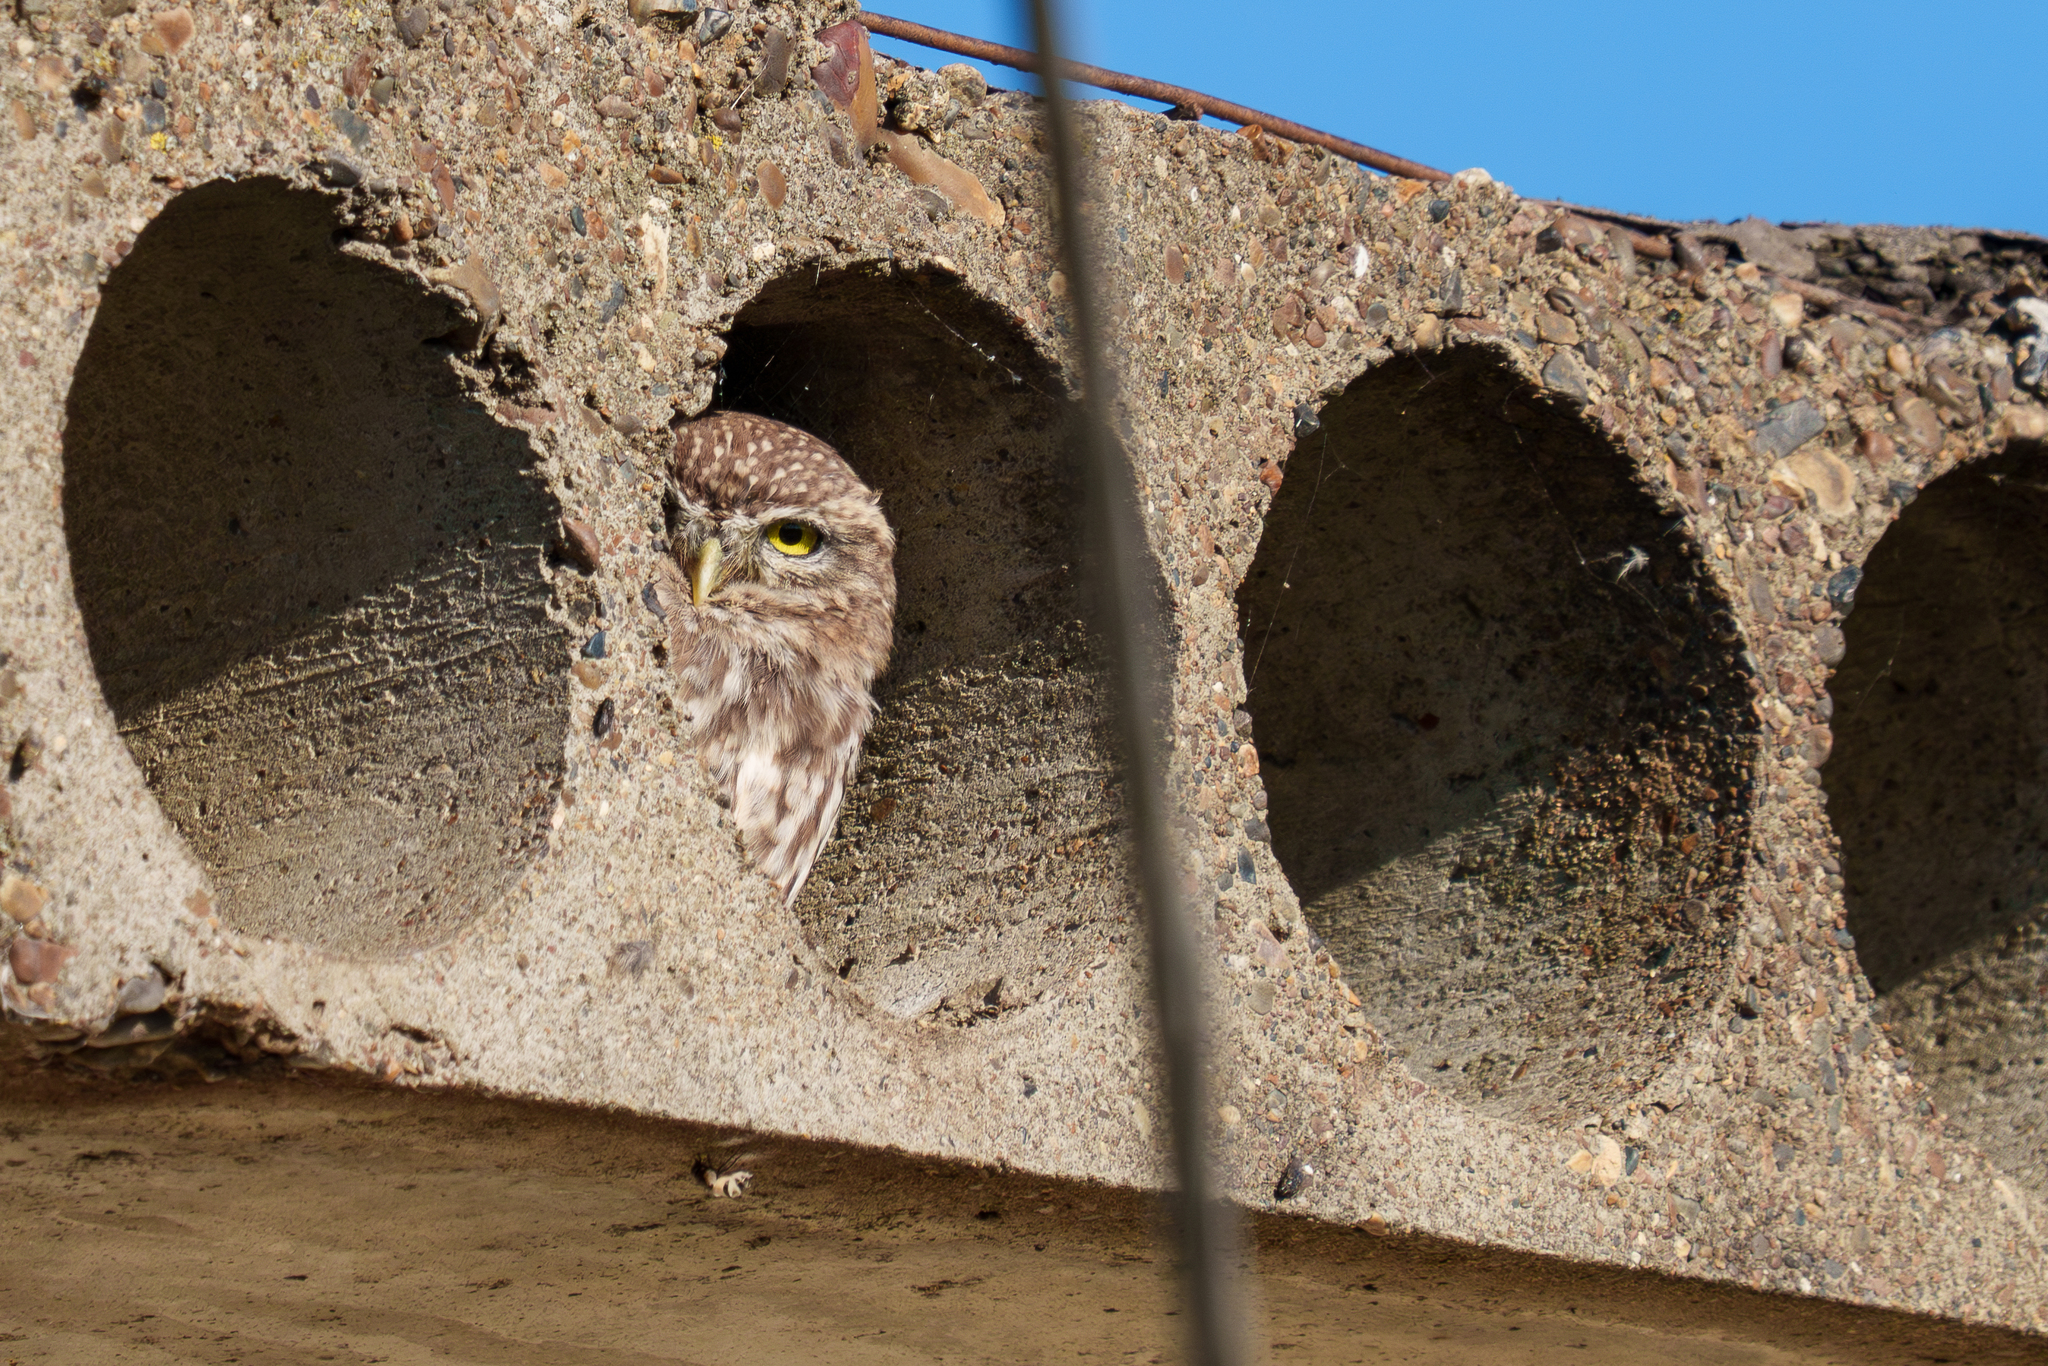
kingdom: Animalia
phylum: Chordata
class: Aves
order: Strigiformes
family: Strigidae
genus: Athene
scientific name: Athene noctua
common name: Little owl
